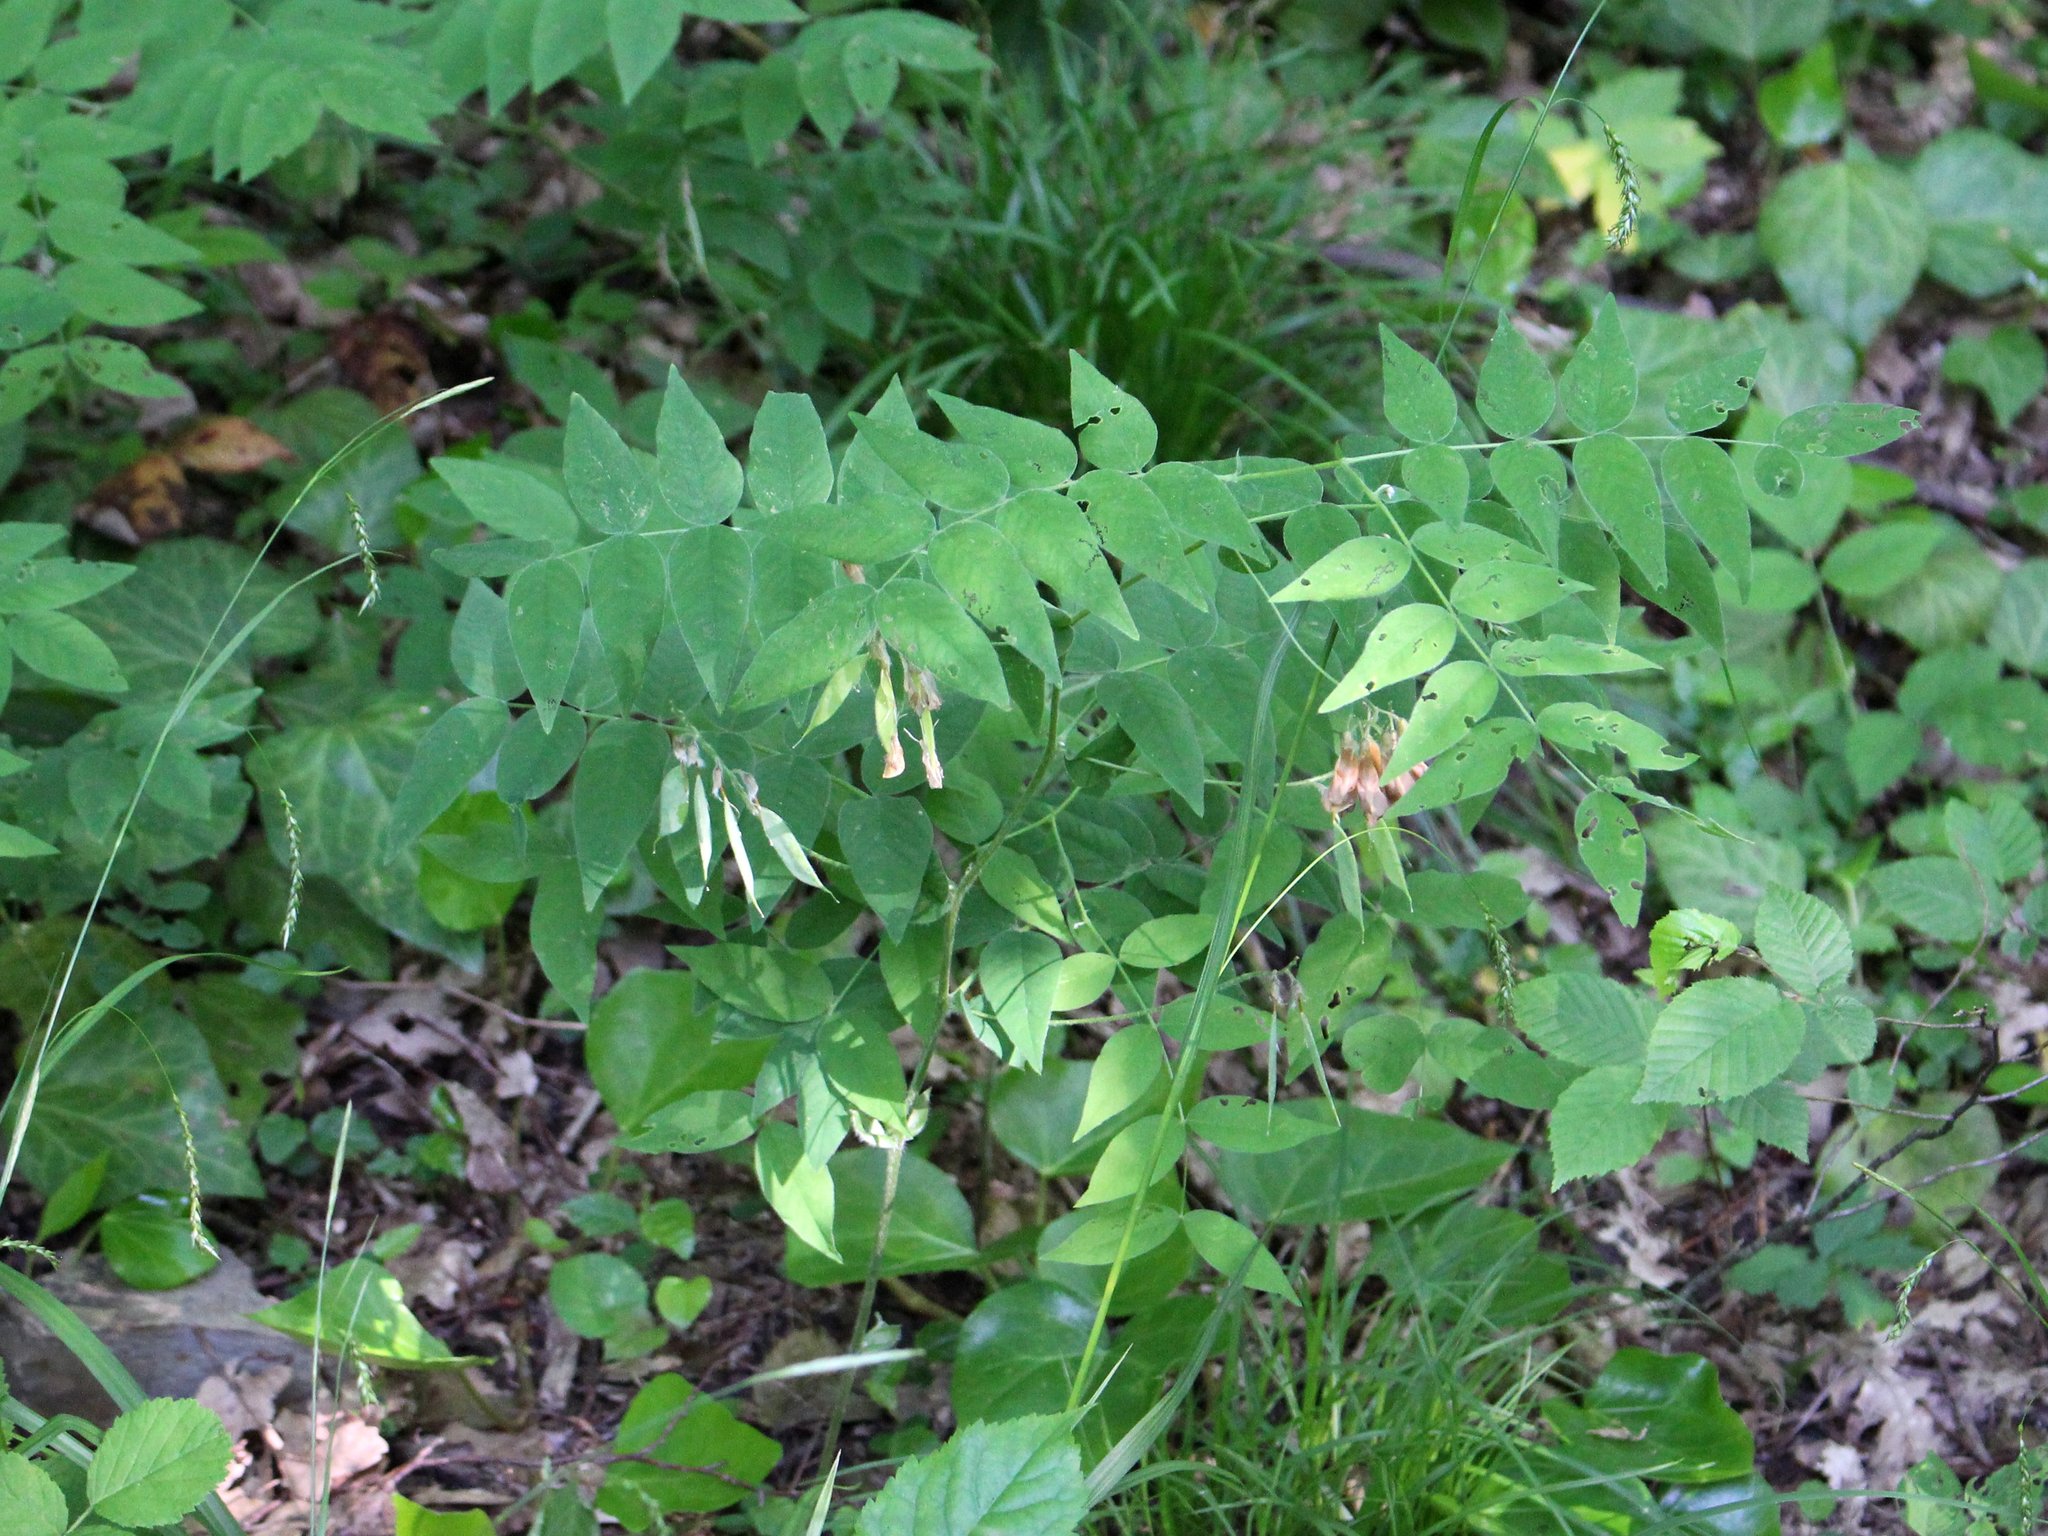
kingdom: Plantae
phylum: Tracheophyta
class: Magnoliopsida
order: Fabales
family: Fabaceae
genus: Vicia
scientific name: Vicia crocea
